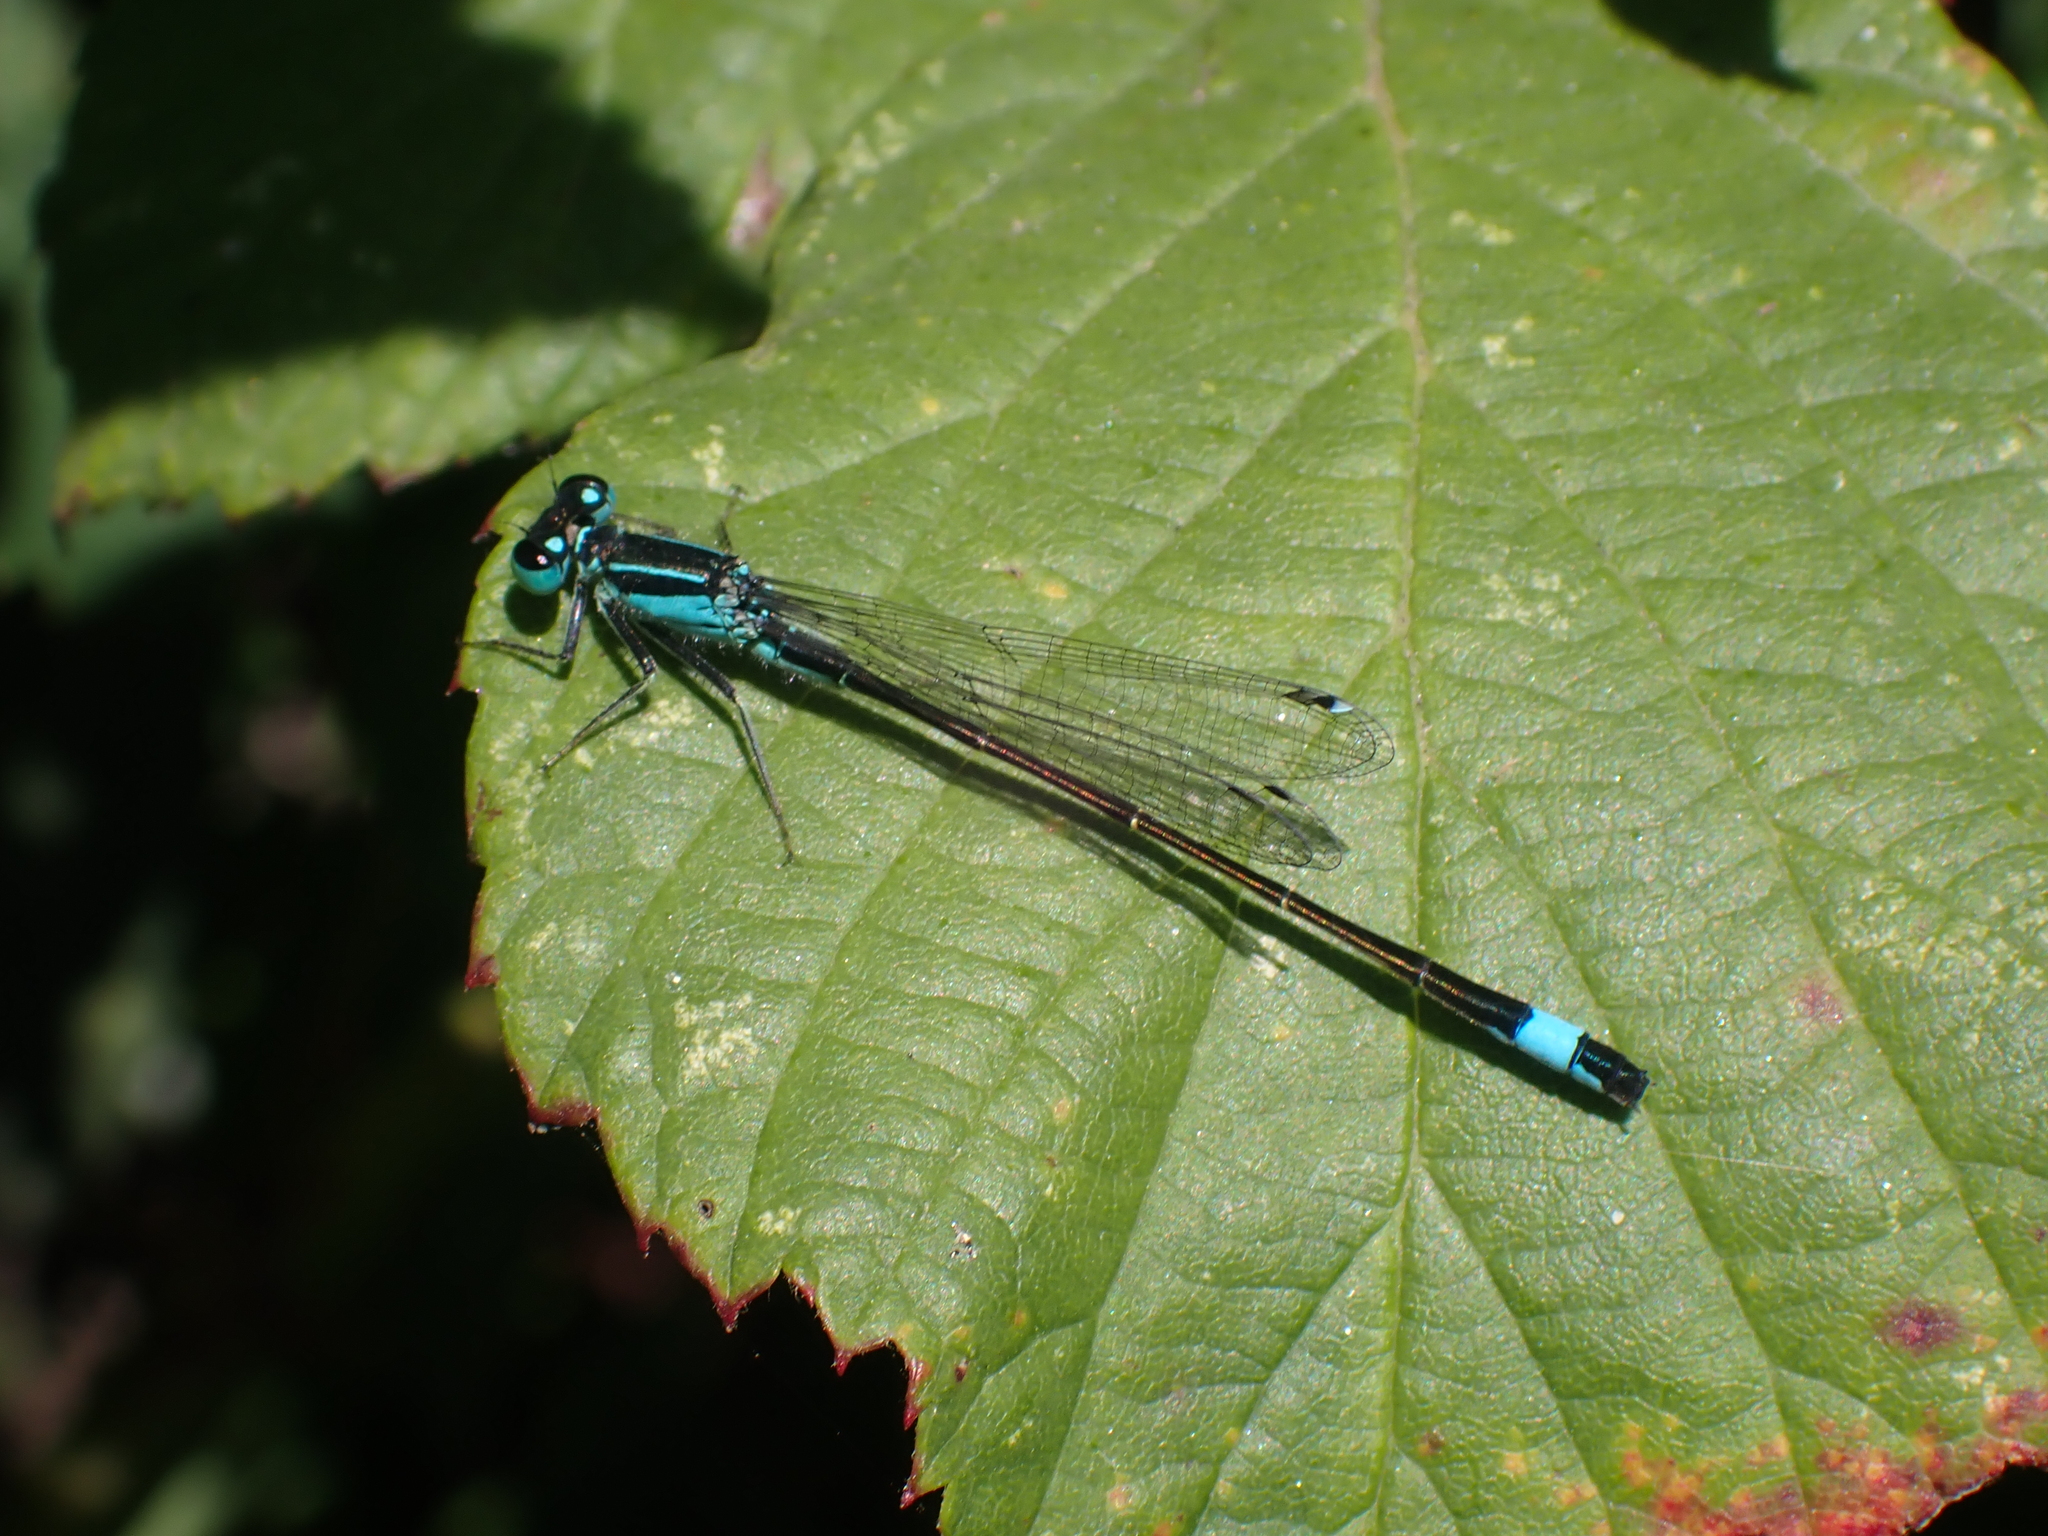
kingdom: Animalia
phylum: Arthropoda
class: Insecta
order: Odonata
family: Coenagrionidae
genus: Ischnura
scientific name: Ischnura elegans
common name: Blue-tailed damselfly
